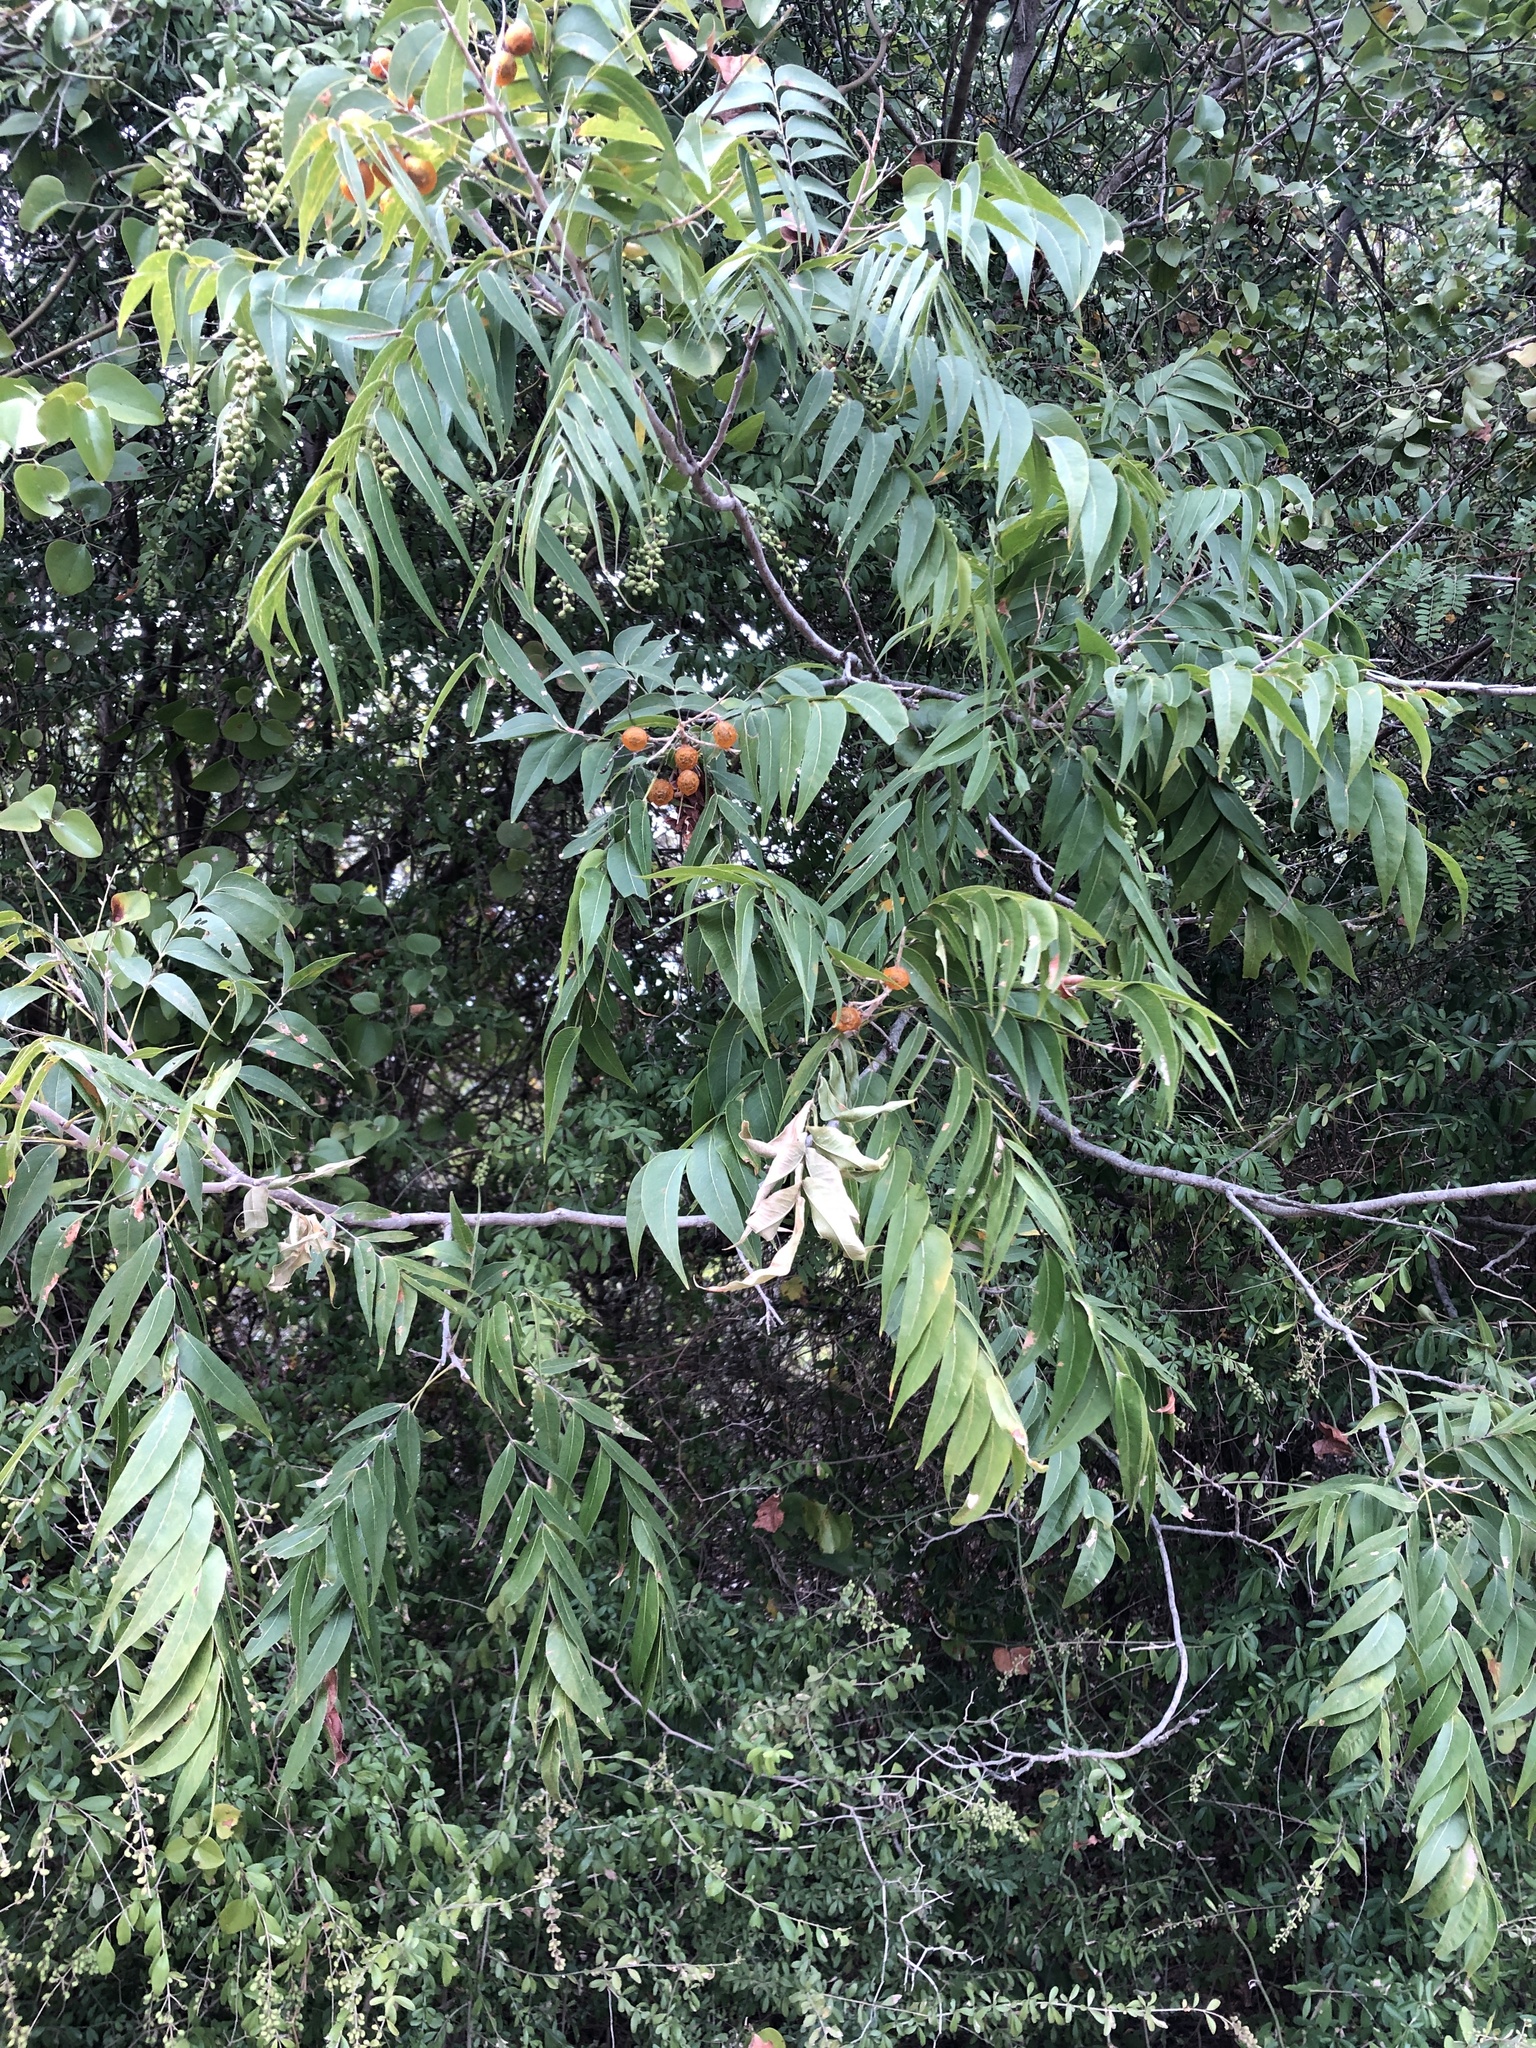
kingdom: Plantae
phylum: Tracheophyta
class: Magnoliopsida
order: Sapindales
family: Sapindaceae
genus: Sapindus
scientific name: Sapindus drummondii
